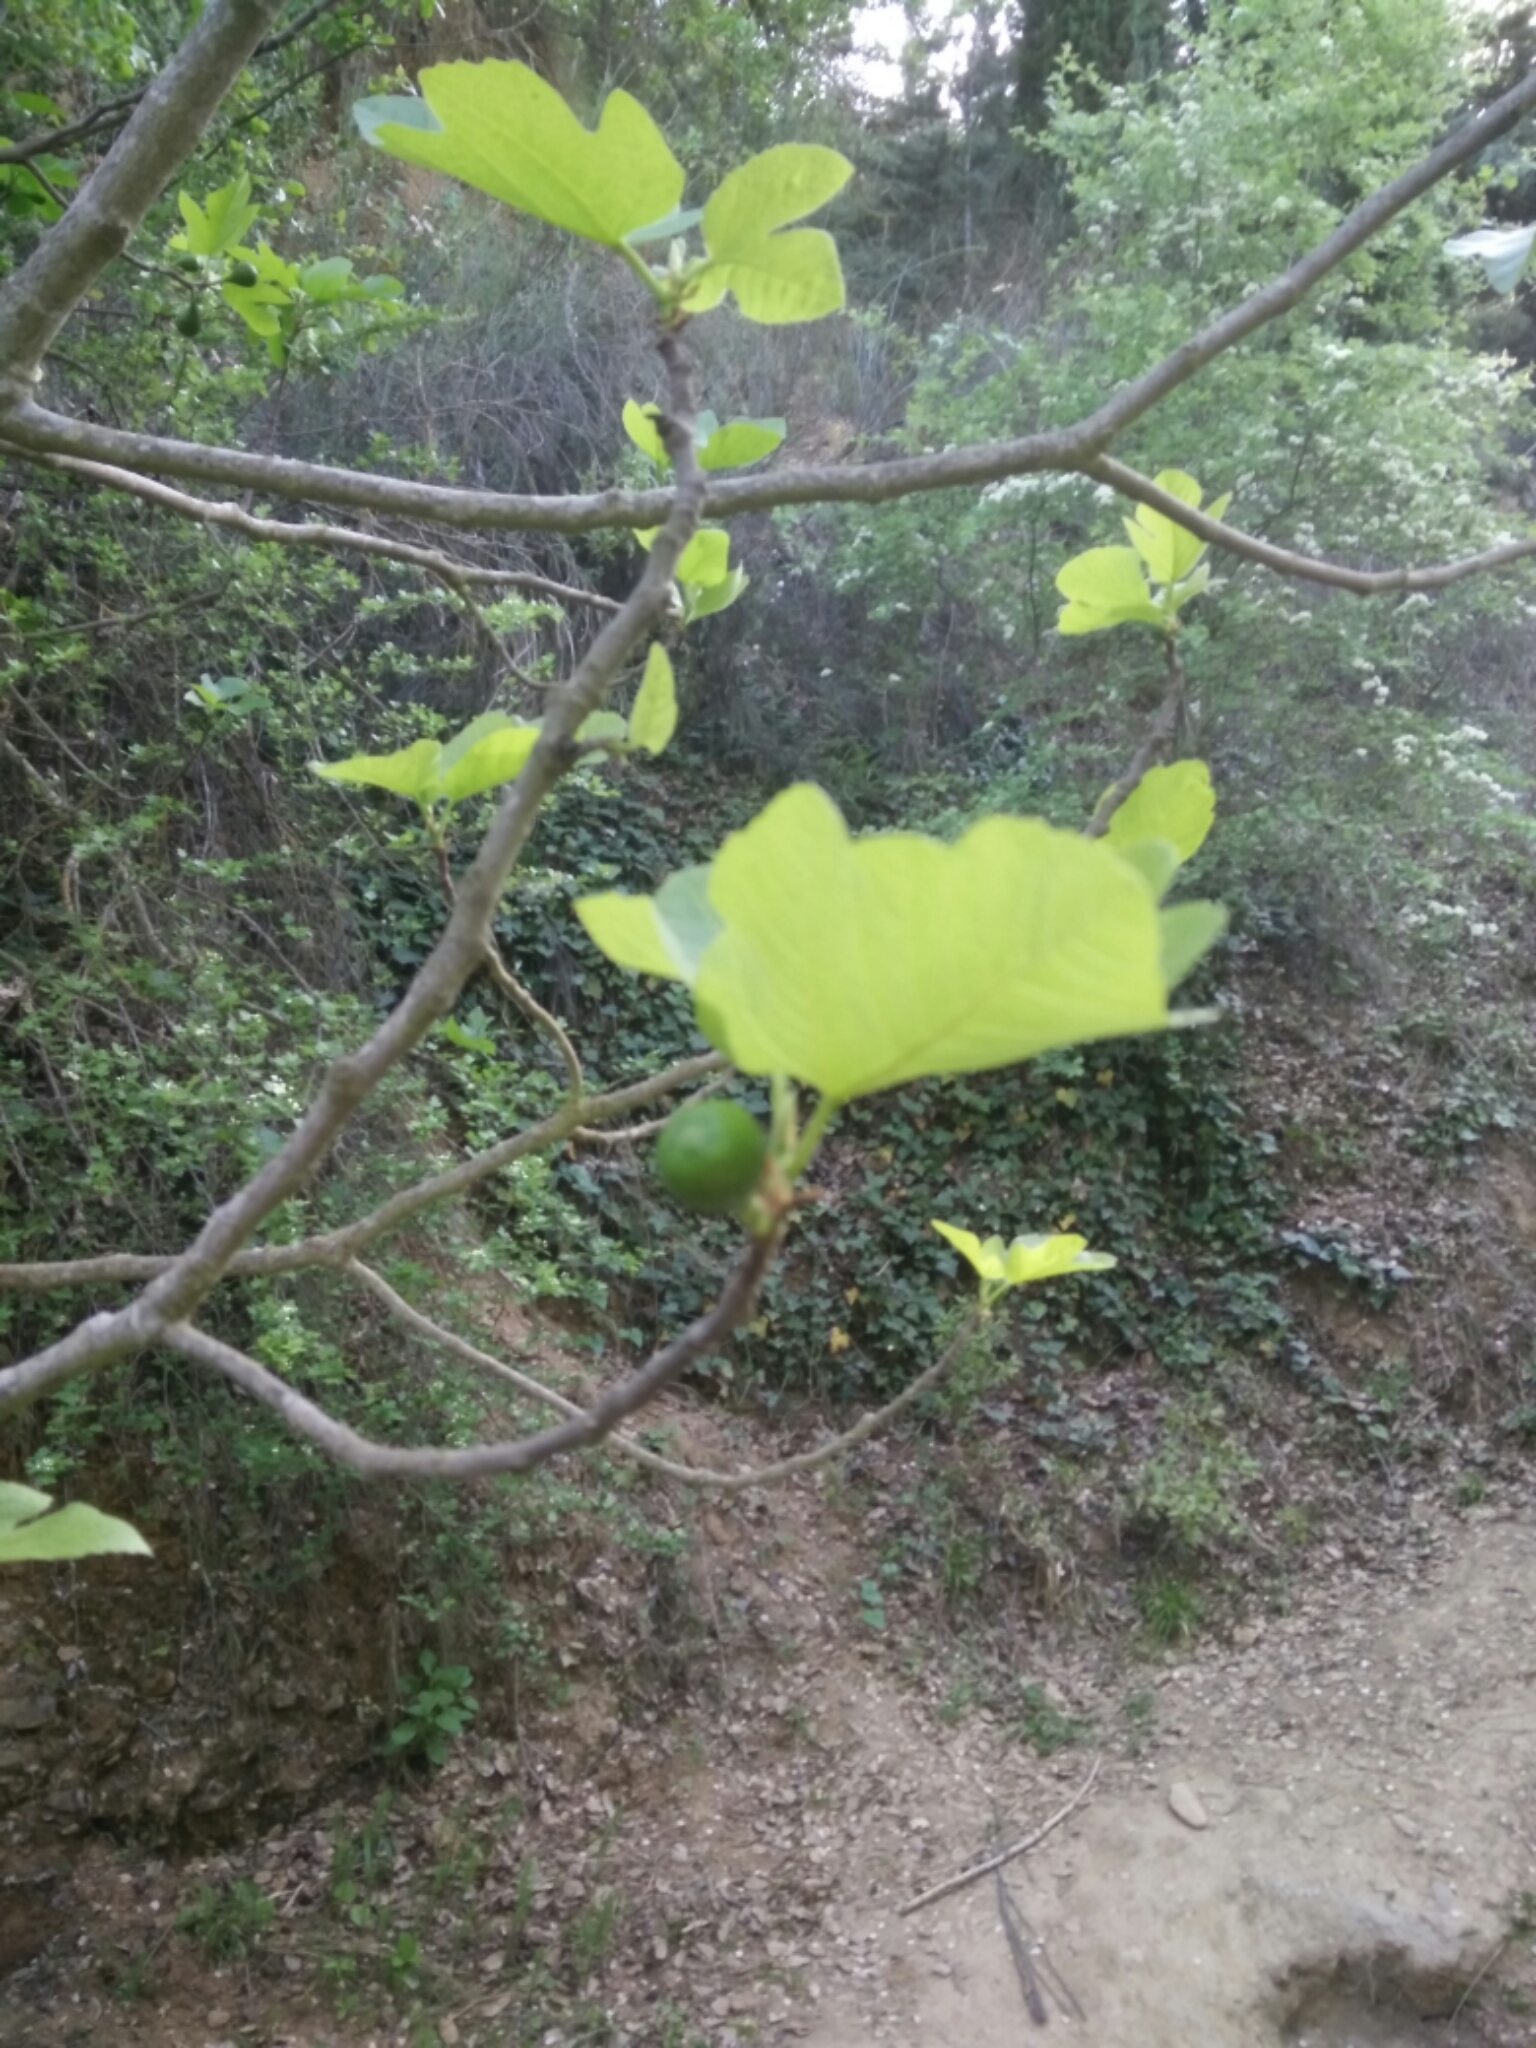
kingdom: Plantae
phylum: Tracheophyta
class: Magnoliopsida
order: Rosales
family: Moraceae
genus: Ficus
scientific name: Ficus carica
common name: Fig
